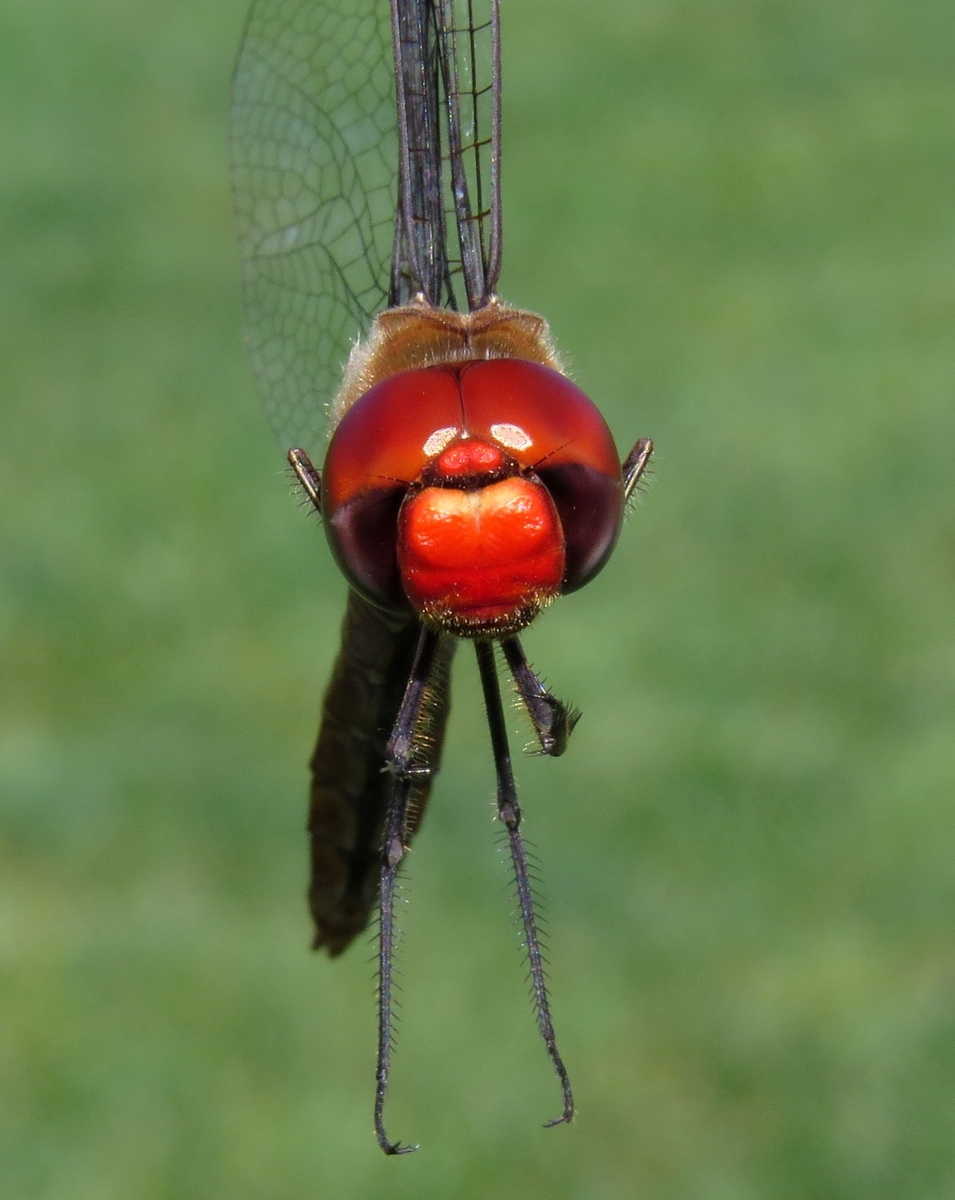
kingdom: Animalia
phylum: Arthropoda
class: Insecta
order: Odonata
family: Libellulidae
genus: Pantala
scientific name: Pantala hymenaea
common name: Spot-winged glider
